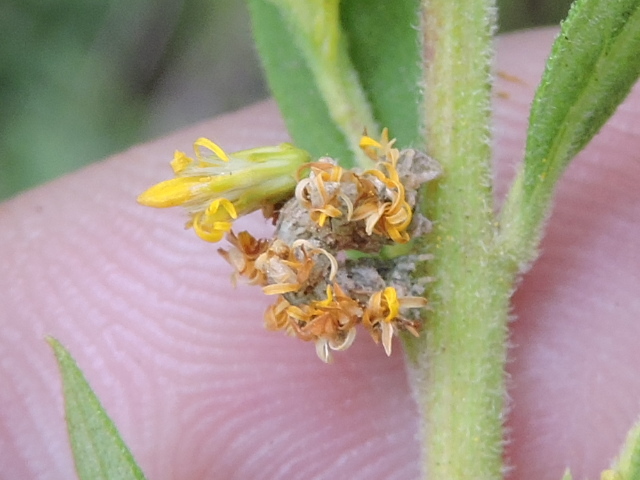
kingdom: Animalia
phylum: Arthropoda
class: Insecta
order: Lepidoptera
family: Geometridae
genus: Synchlora
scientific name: Synchlora
